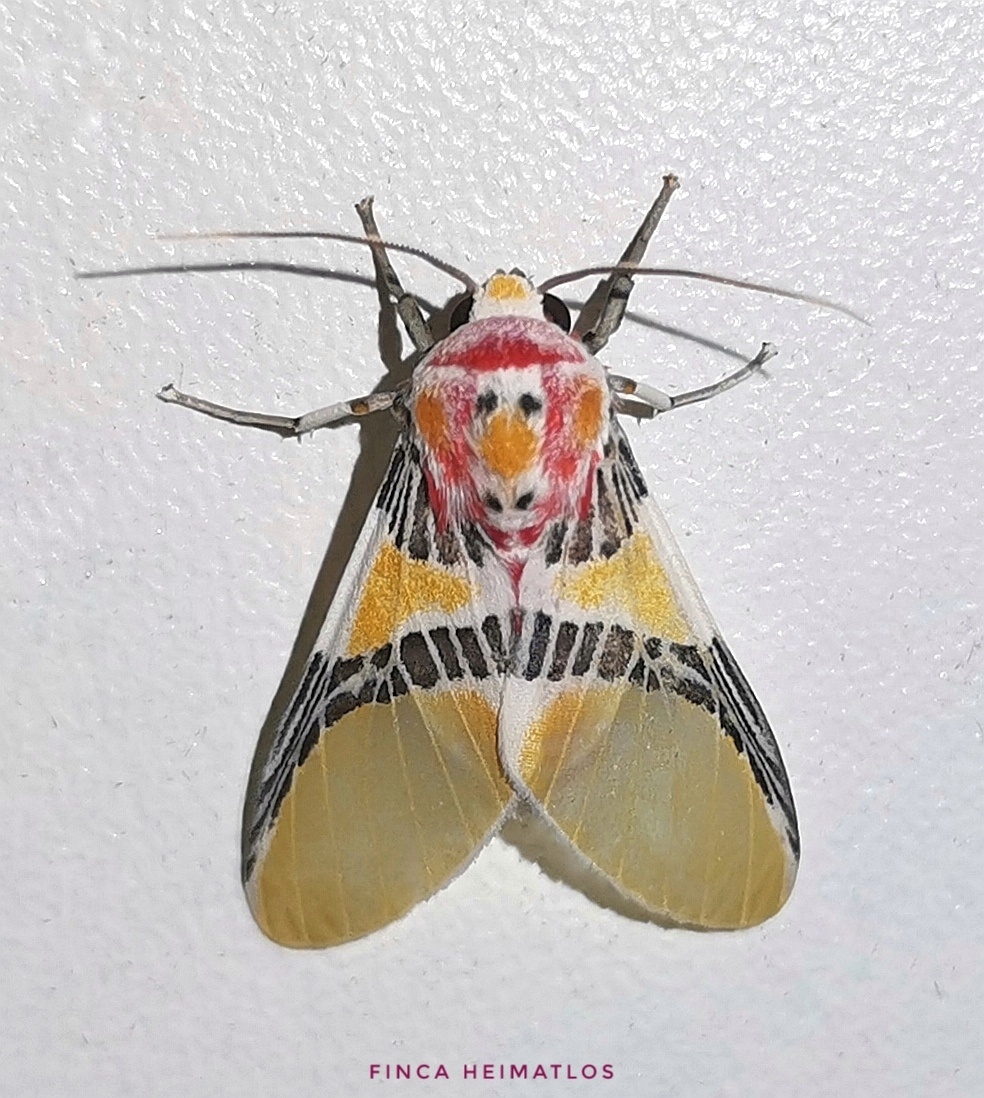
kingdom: Animalia
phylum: Arthropoda
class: Insecta
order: Lepidoptera
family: Erebidae
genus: Idalus
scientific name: Idalus herois
